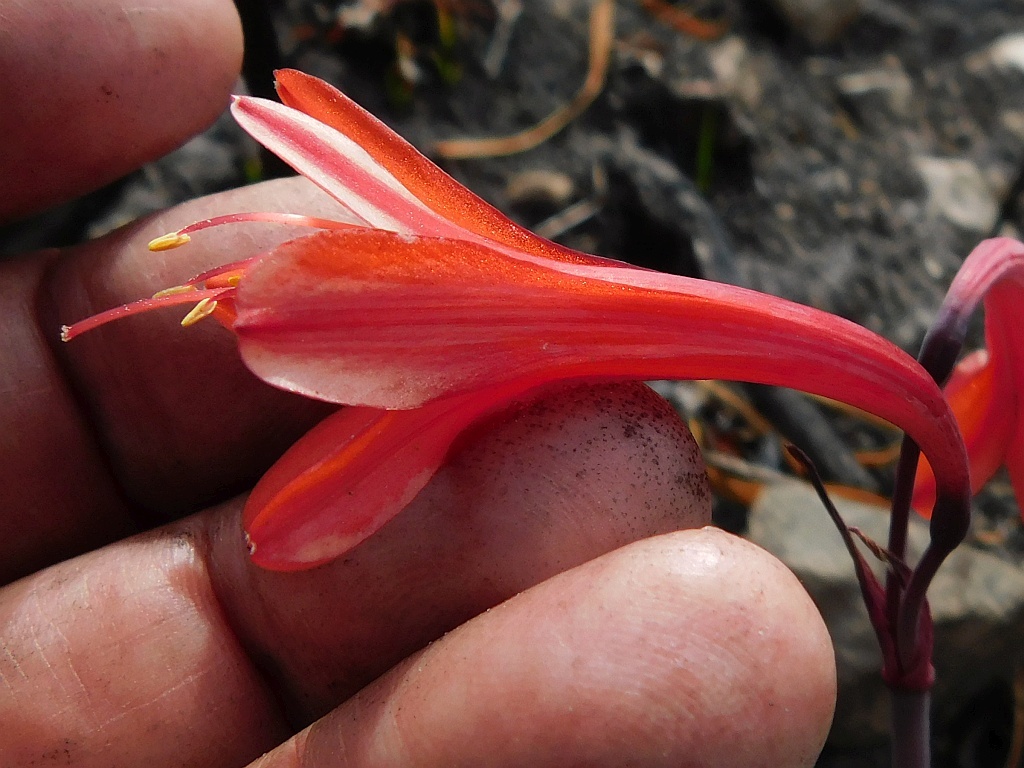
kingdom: Plantae
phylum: Tracheophyta
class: Liliopsida
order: Asparagales
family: Amaryllidaceae
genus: Cyrtanthus
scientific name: Cyrtanthus ventricosus
